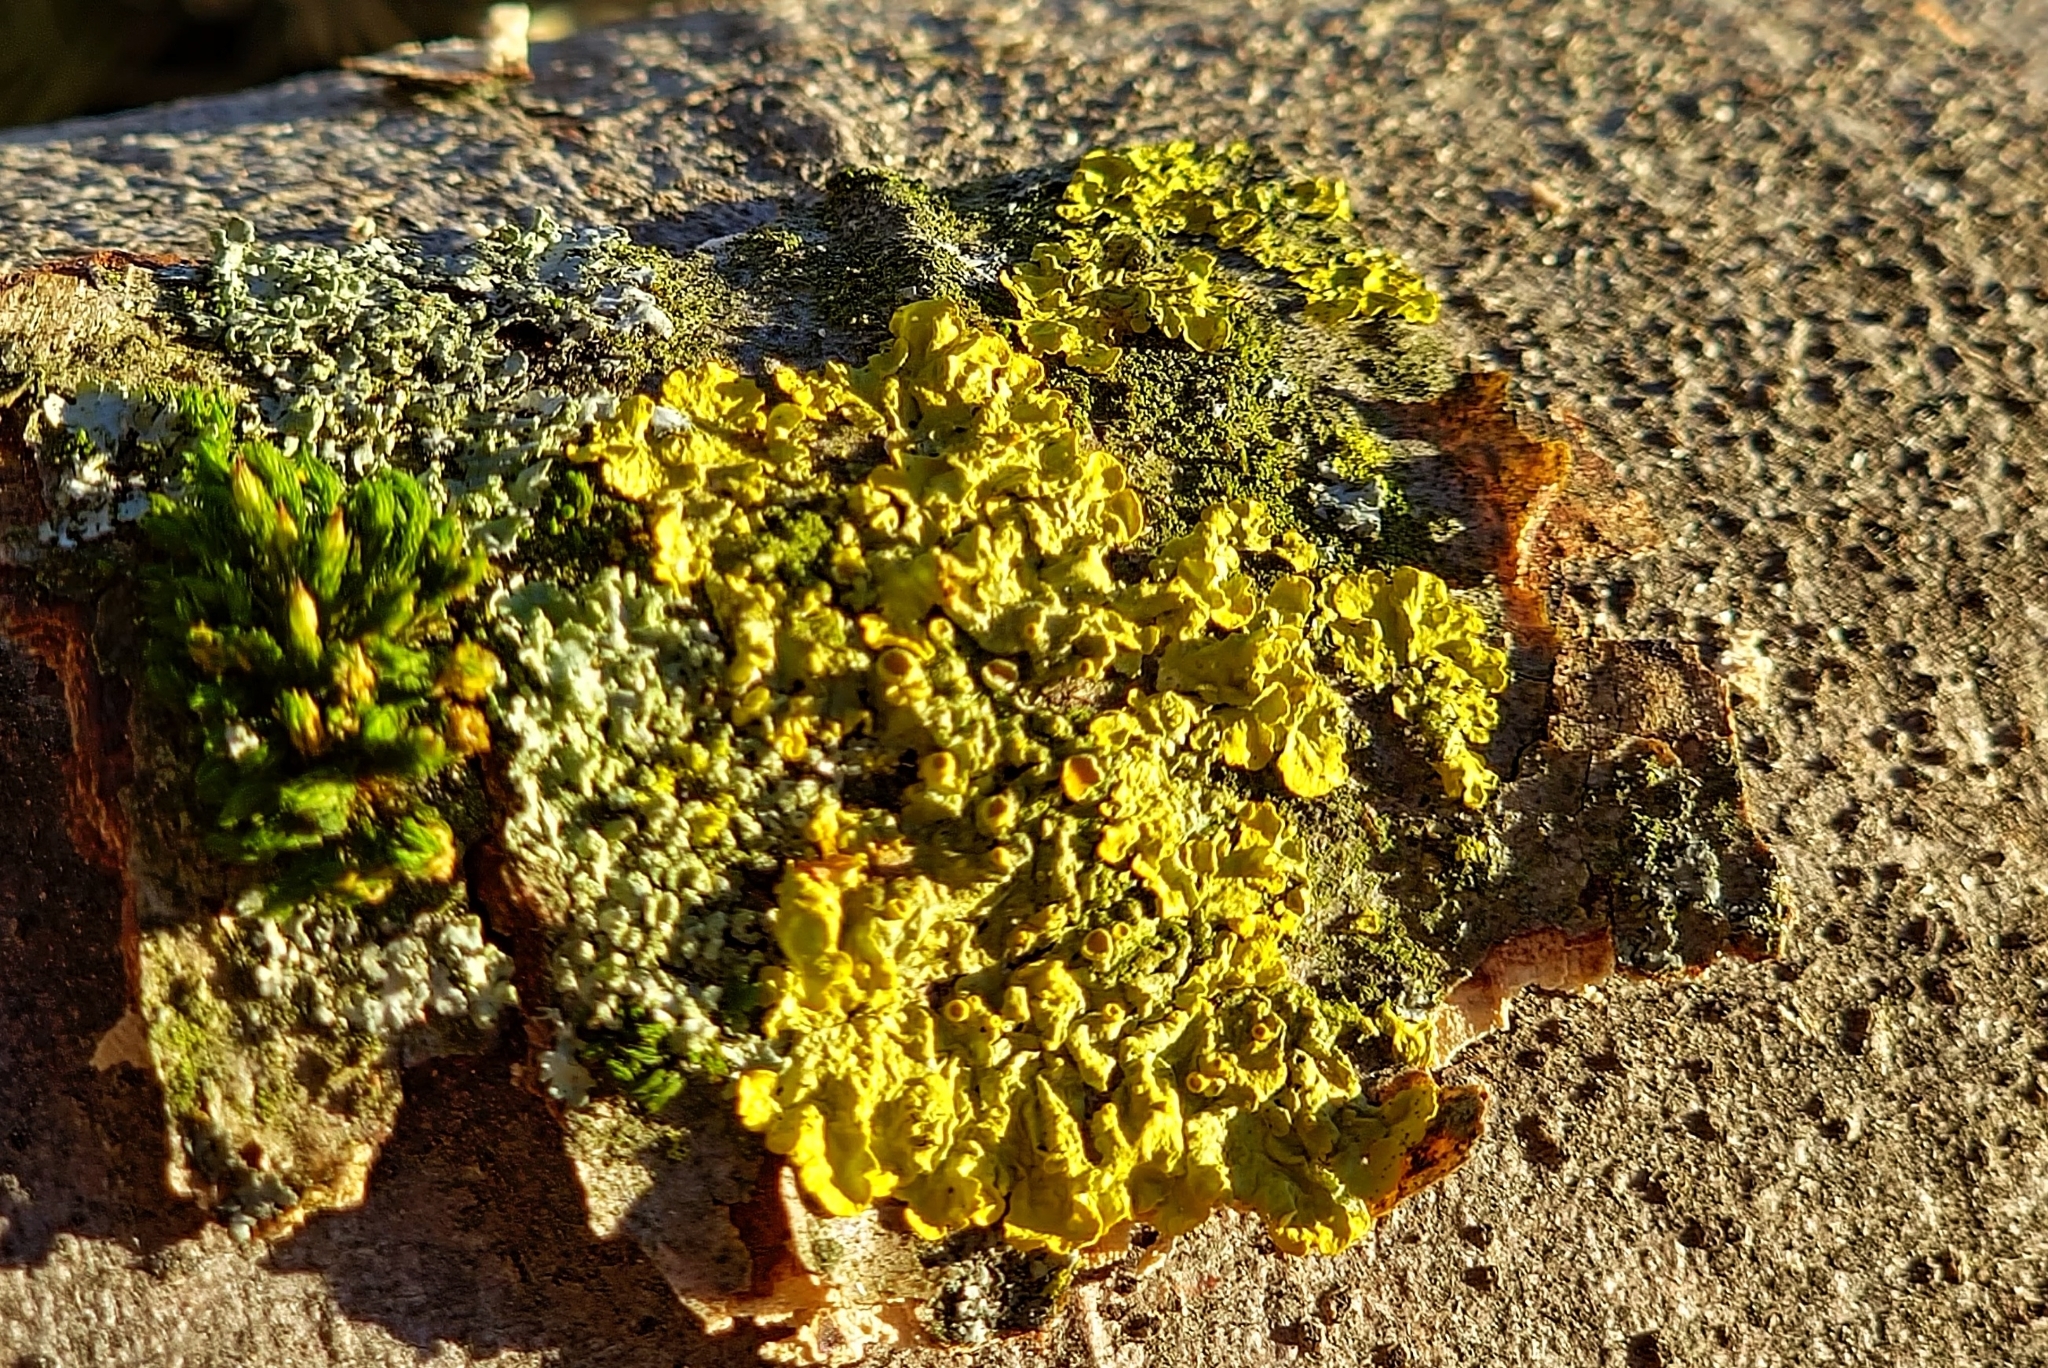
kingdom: Fungi
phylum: Ascomycota
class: Lecanoromycetes
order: Teloschistales
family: Teloschistaceae
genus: Xanthoria
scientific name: Xanthoria parietina
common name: Common orange lichen
